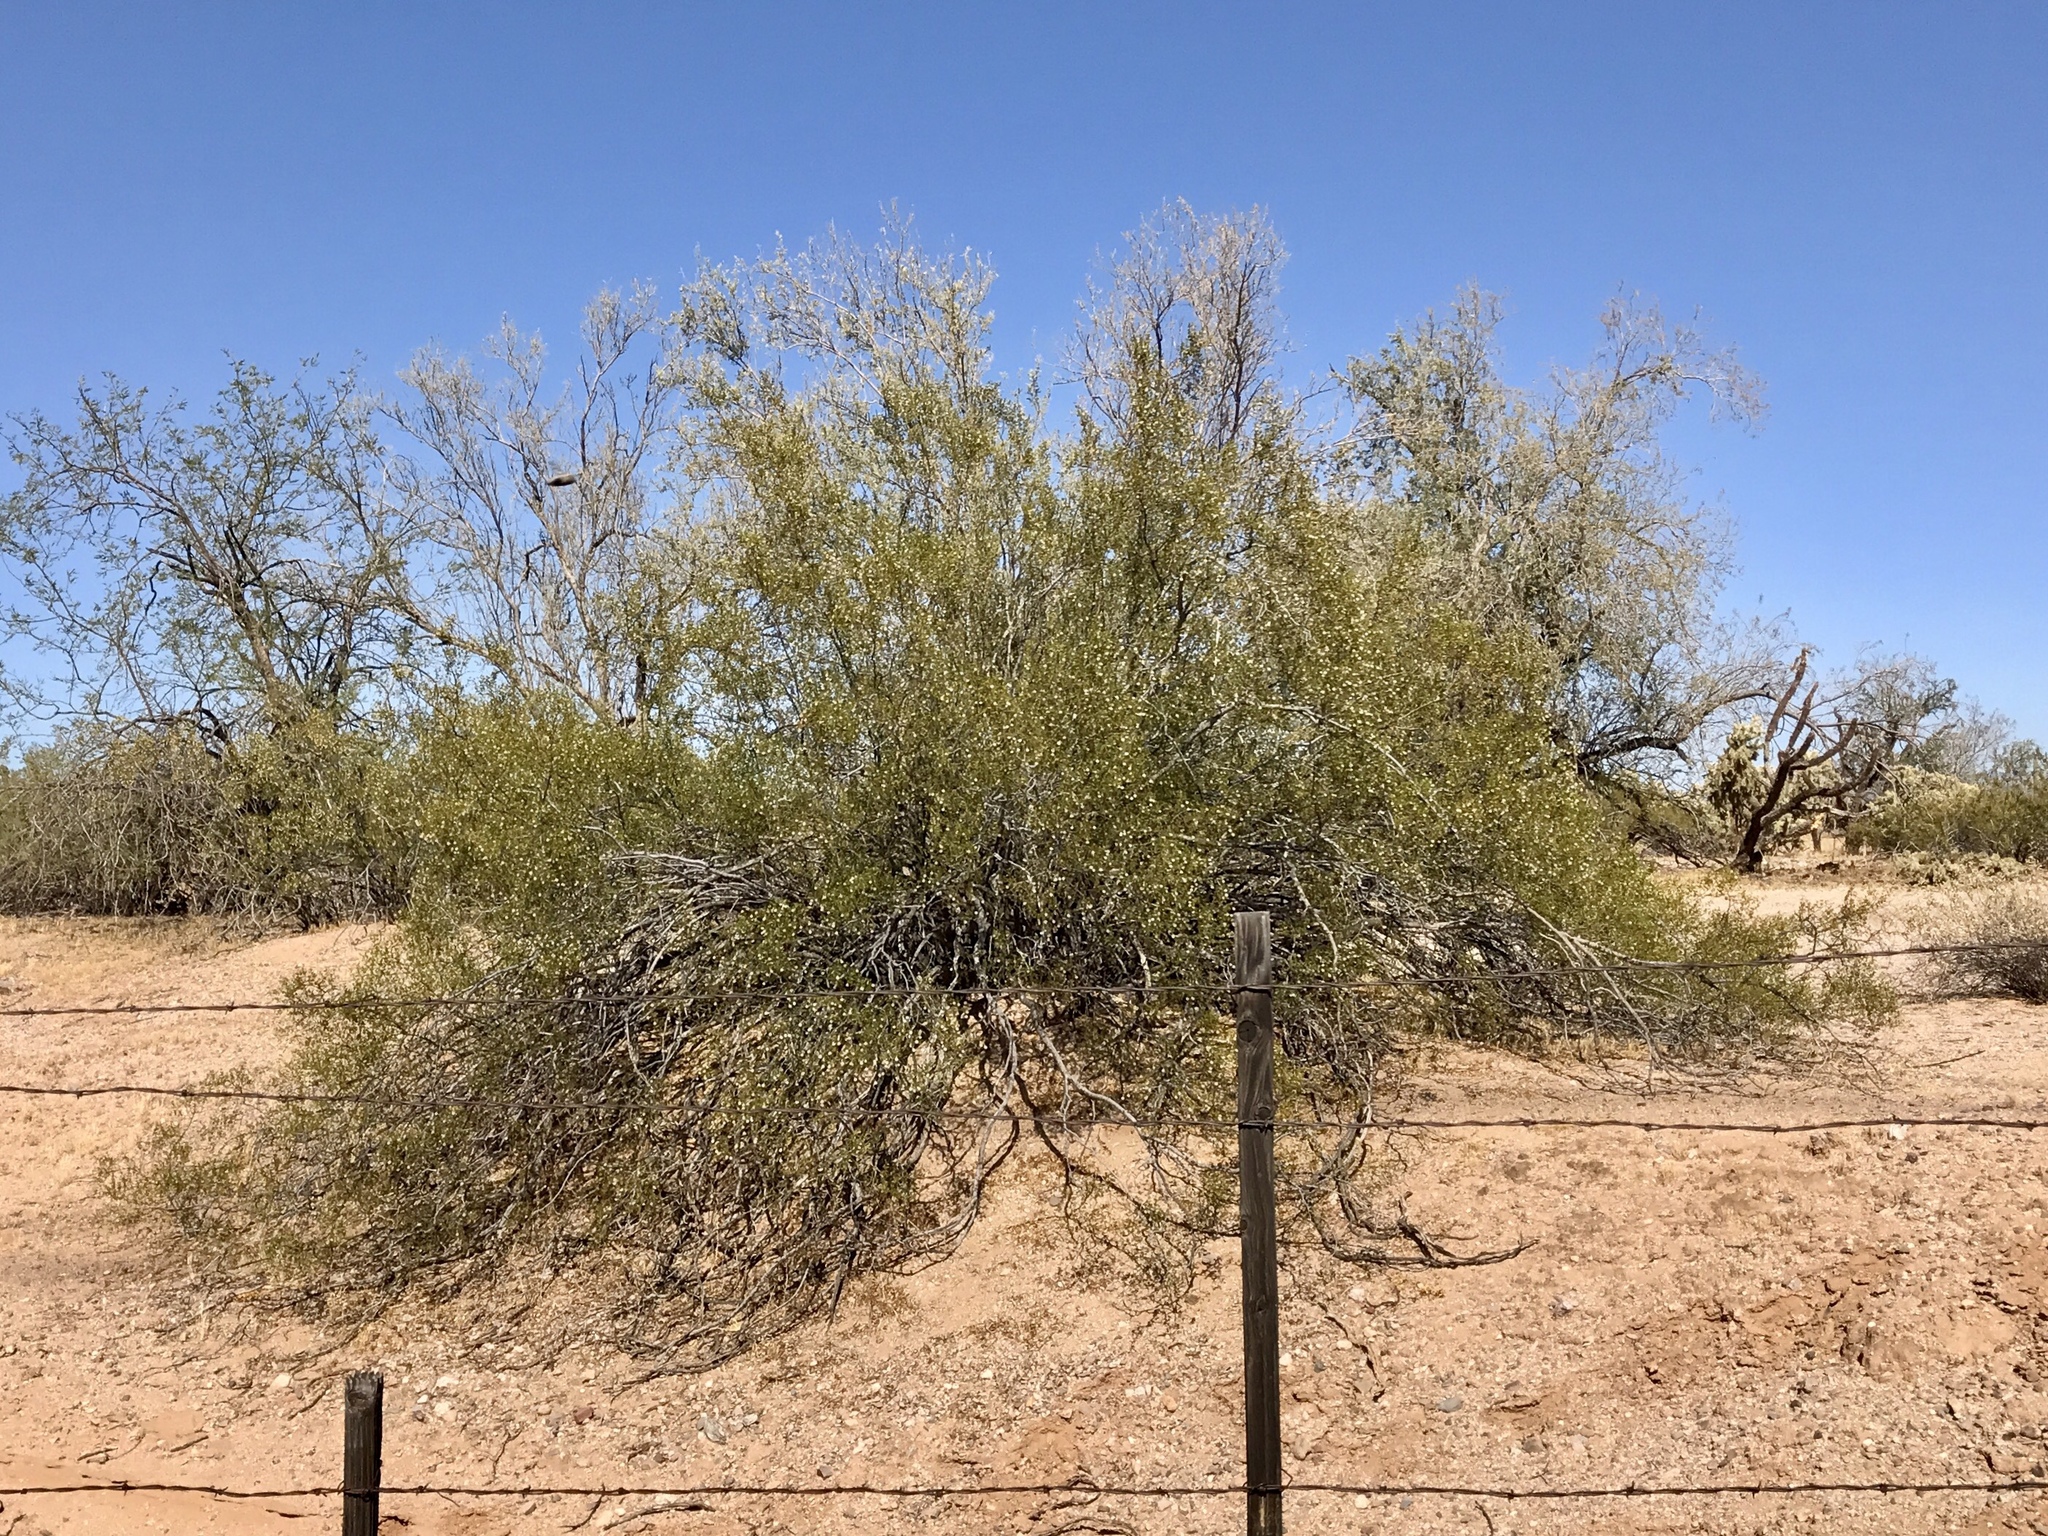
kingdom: Plantae
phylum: Tracheophyta
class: Magnoliopsida
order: Zygophyllales
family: Zygophyllaceae
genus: Larrea
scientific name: Larrea tridentata
